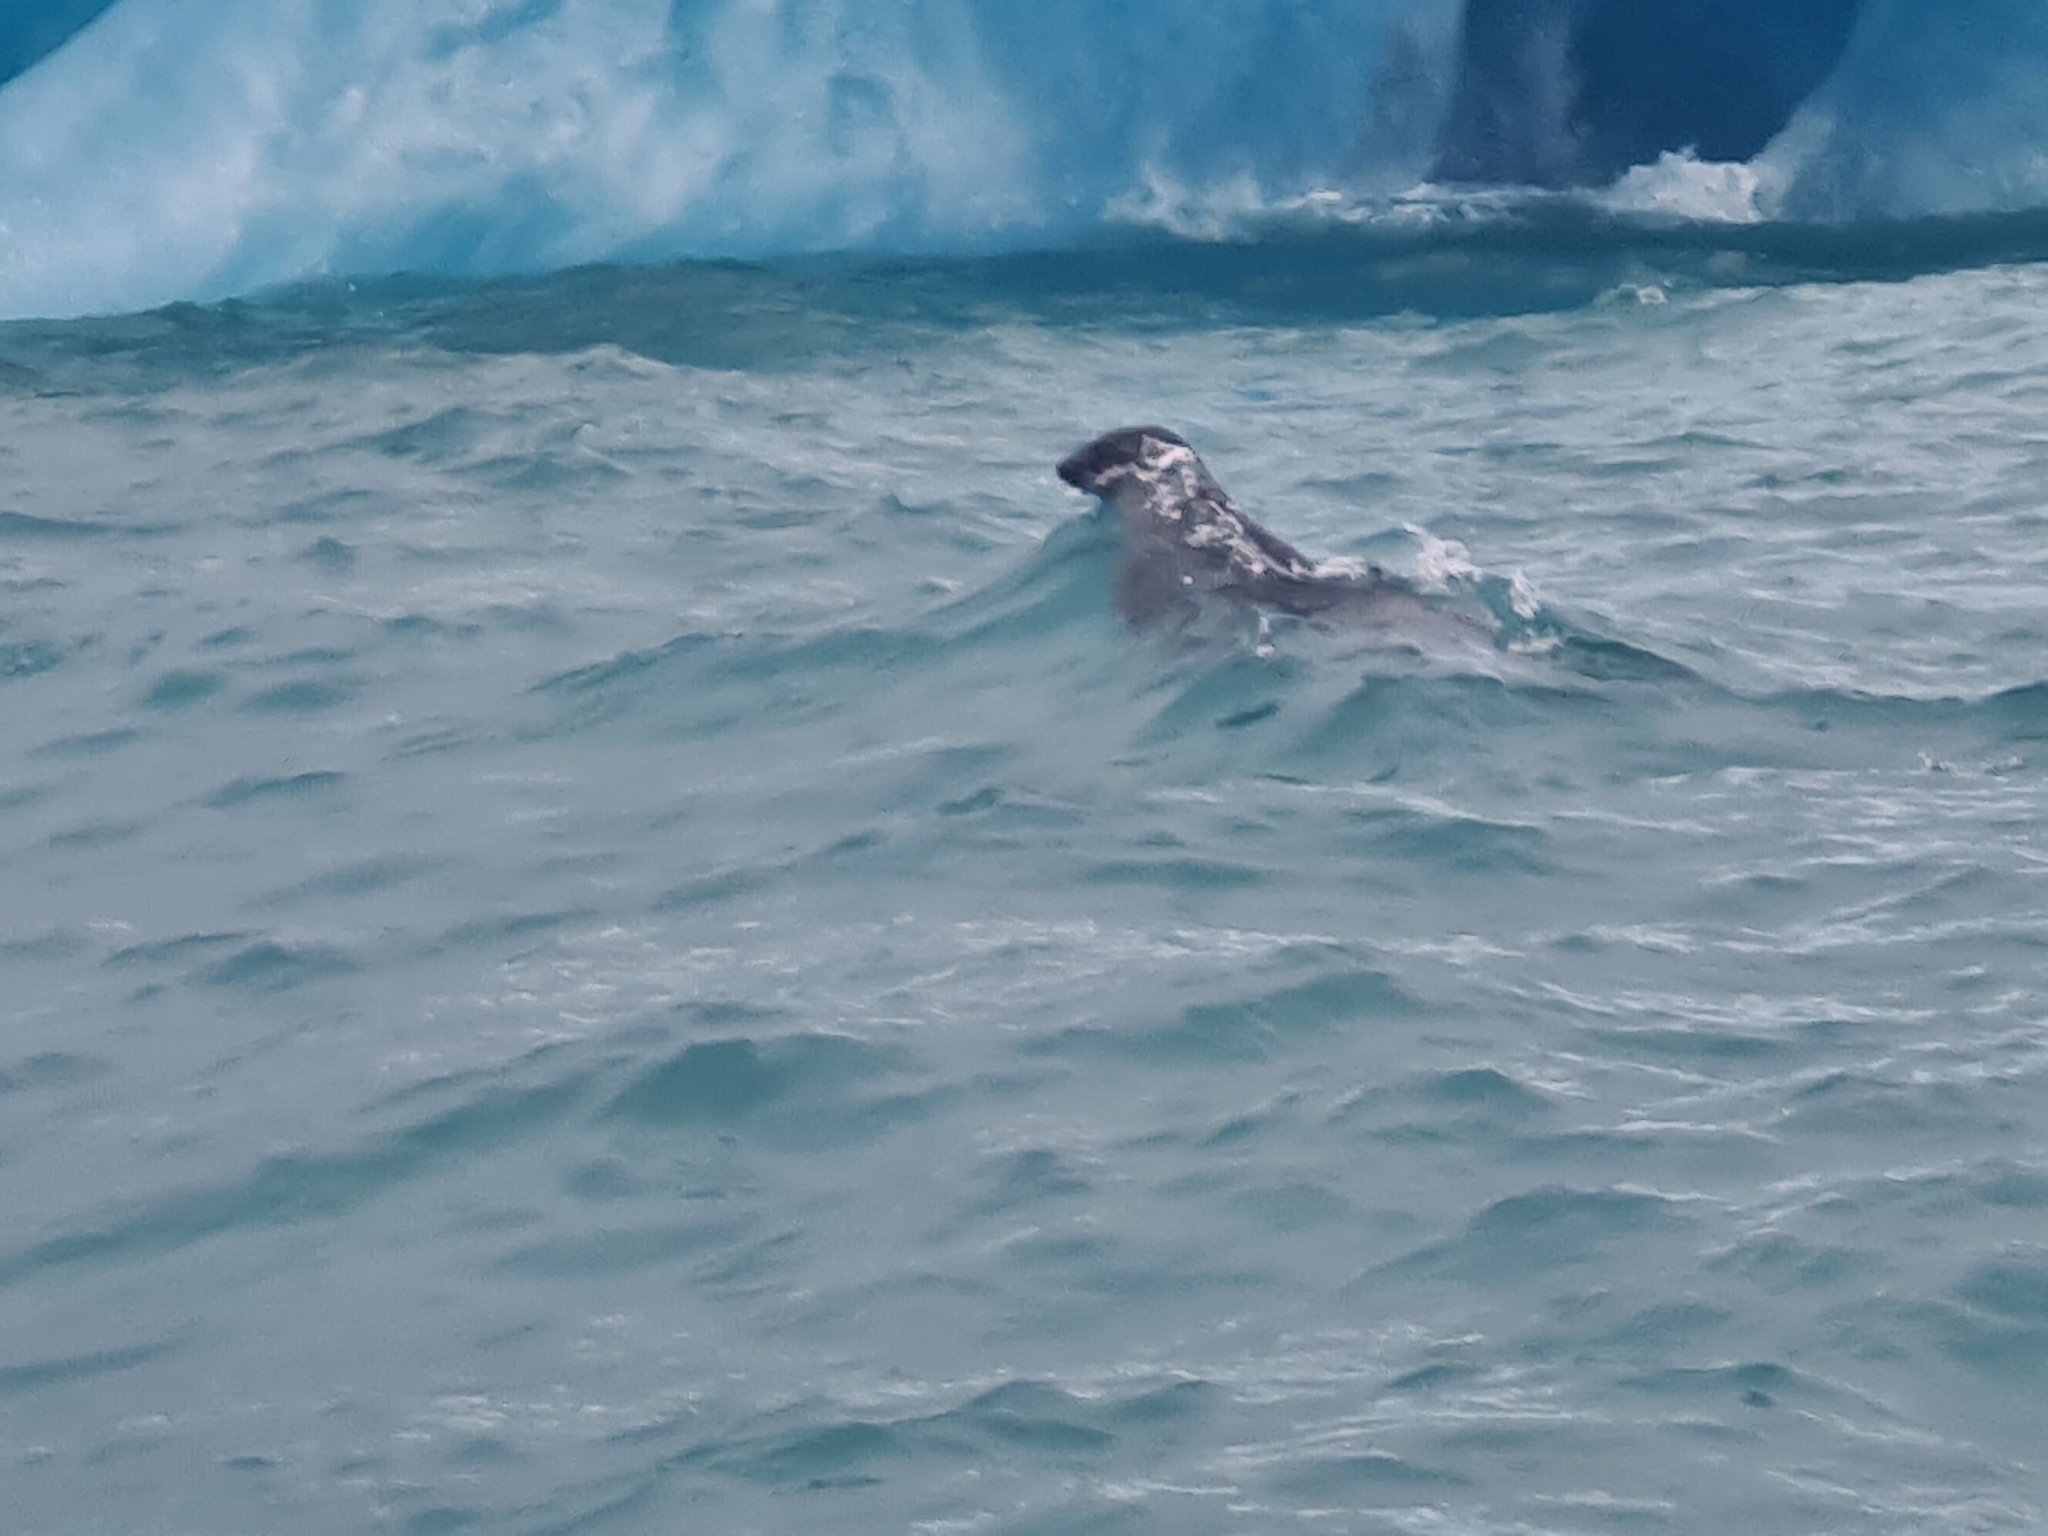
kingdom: Animalia
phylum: Chordata
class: Mammalia
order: Carnivora
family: Phocidae
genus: Phoca
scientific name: Phoca vitulina
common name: Harbor seal
